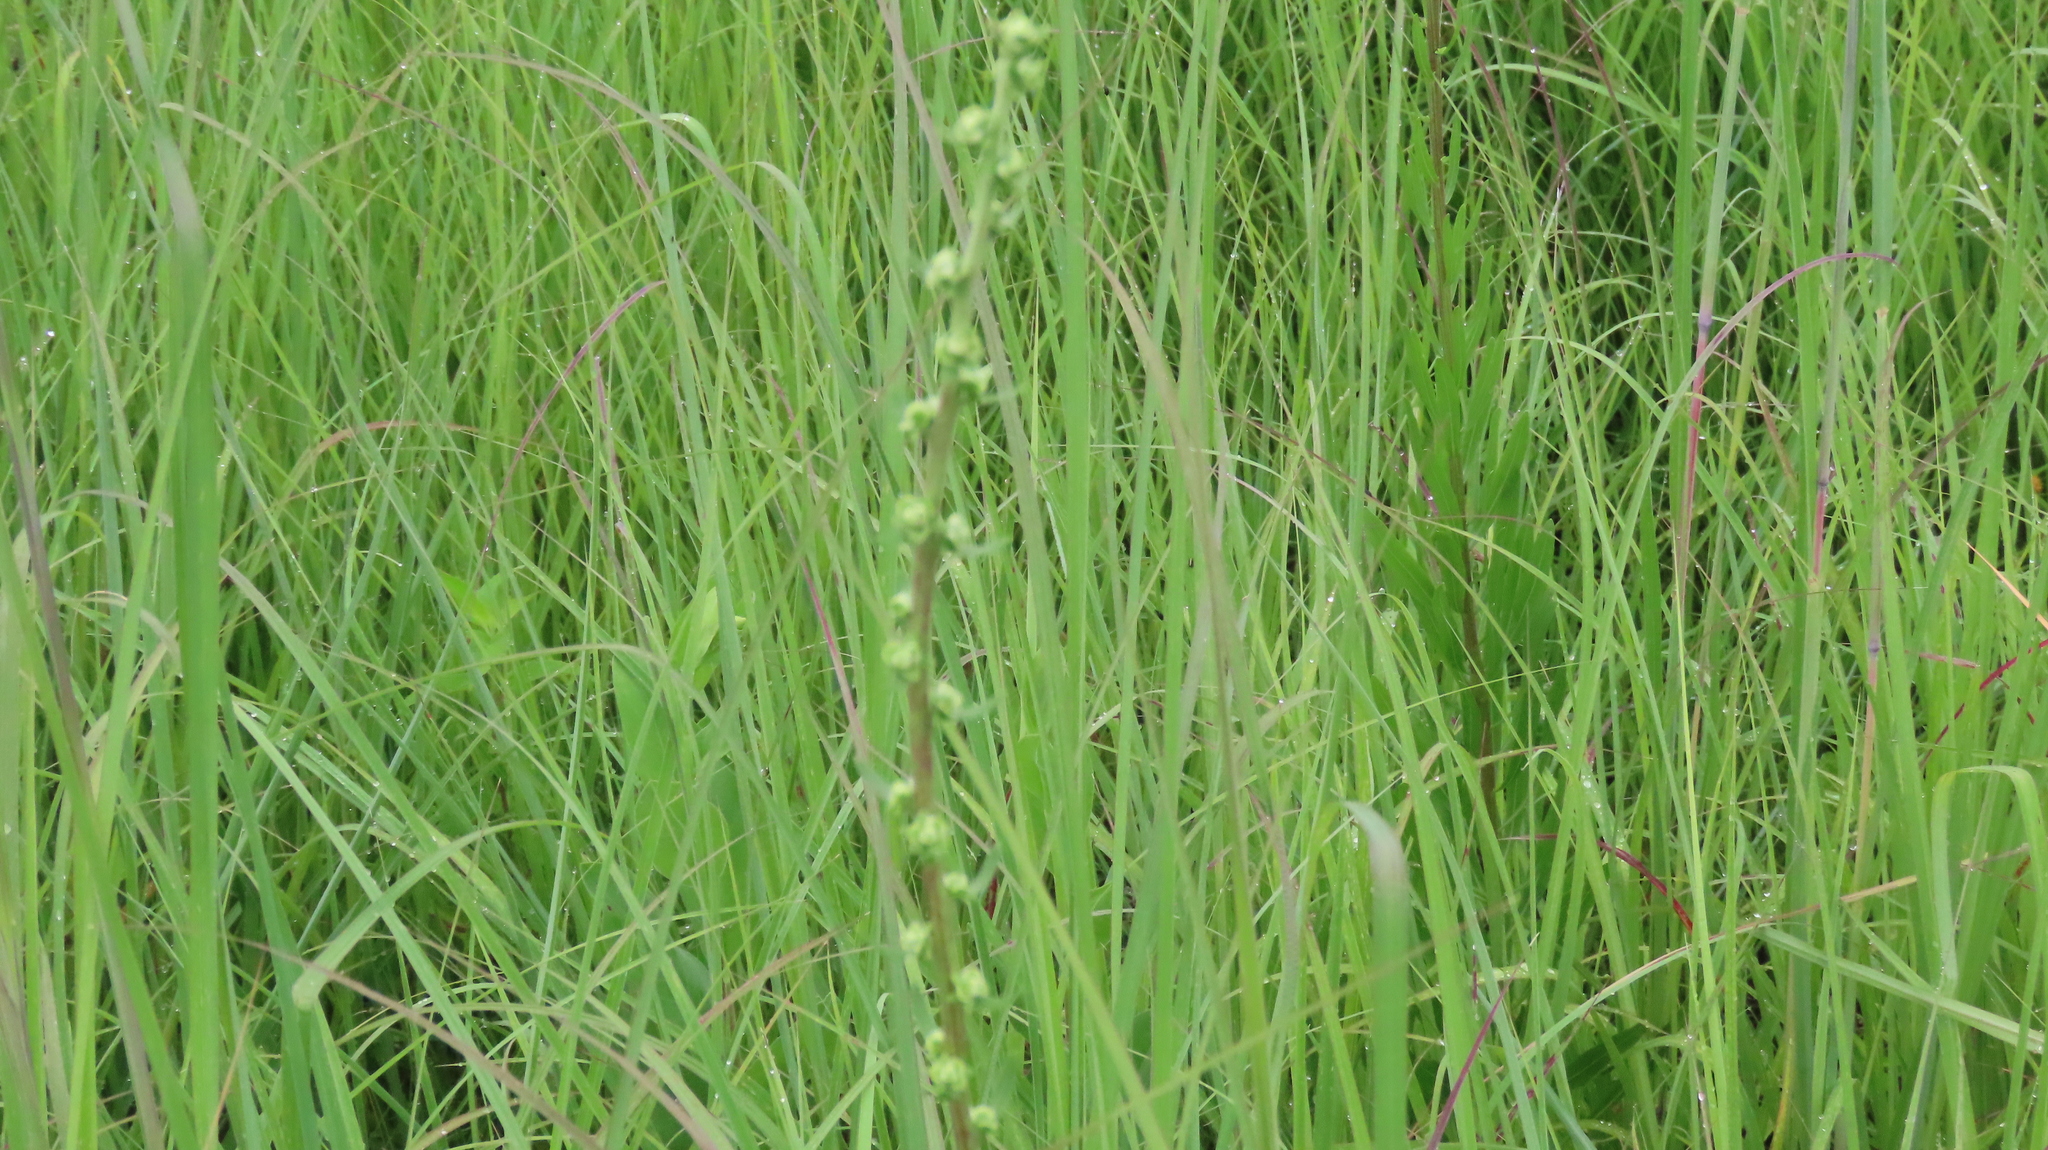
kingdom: Plantae
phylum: Tracheophyta
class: Magnoliopsida
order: Asterales
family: Asteraceae
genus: Liatris
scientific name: Liatris aspera
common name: Lacerate blazing-star
